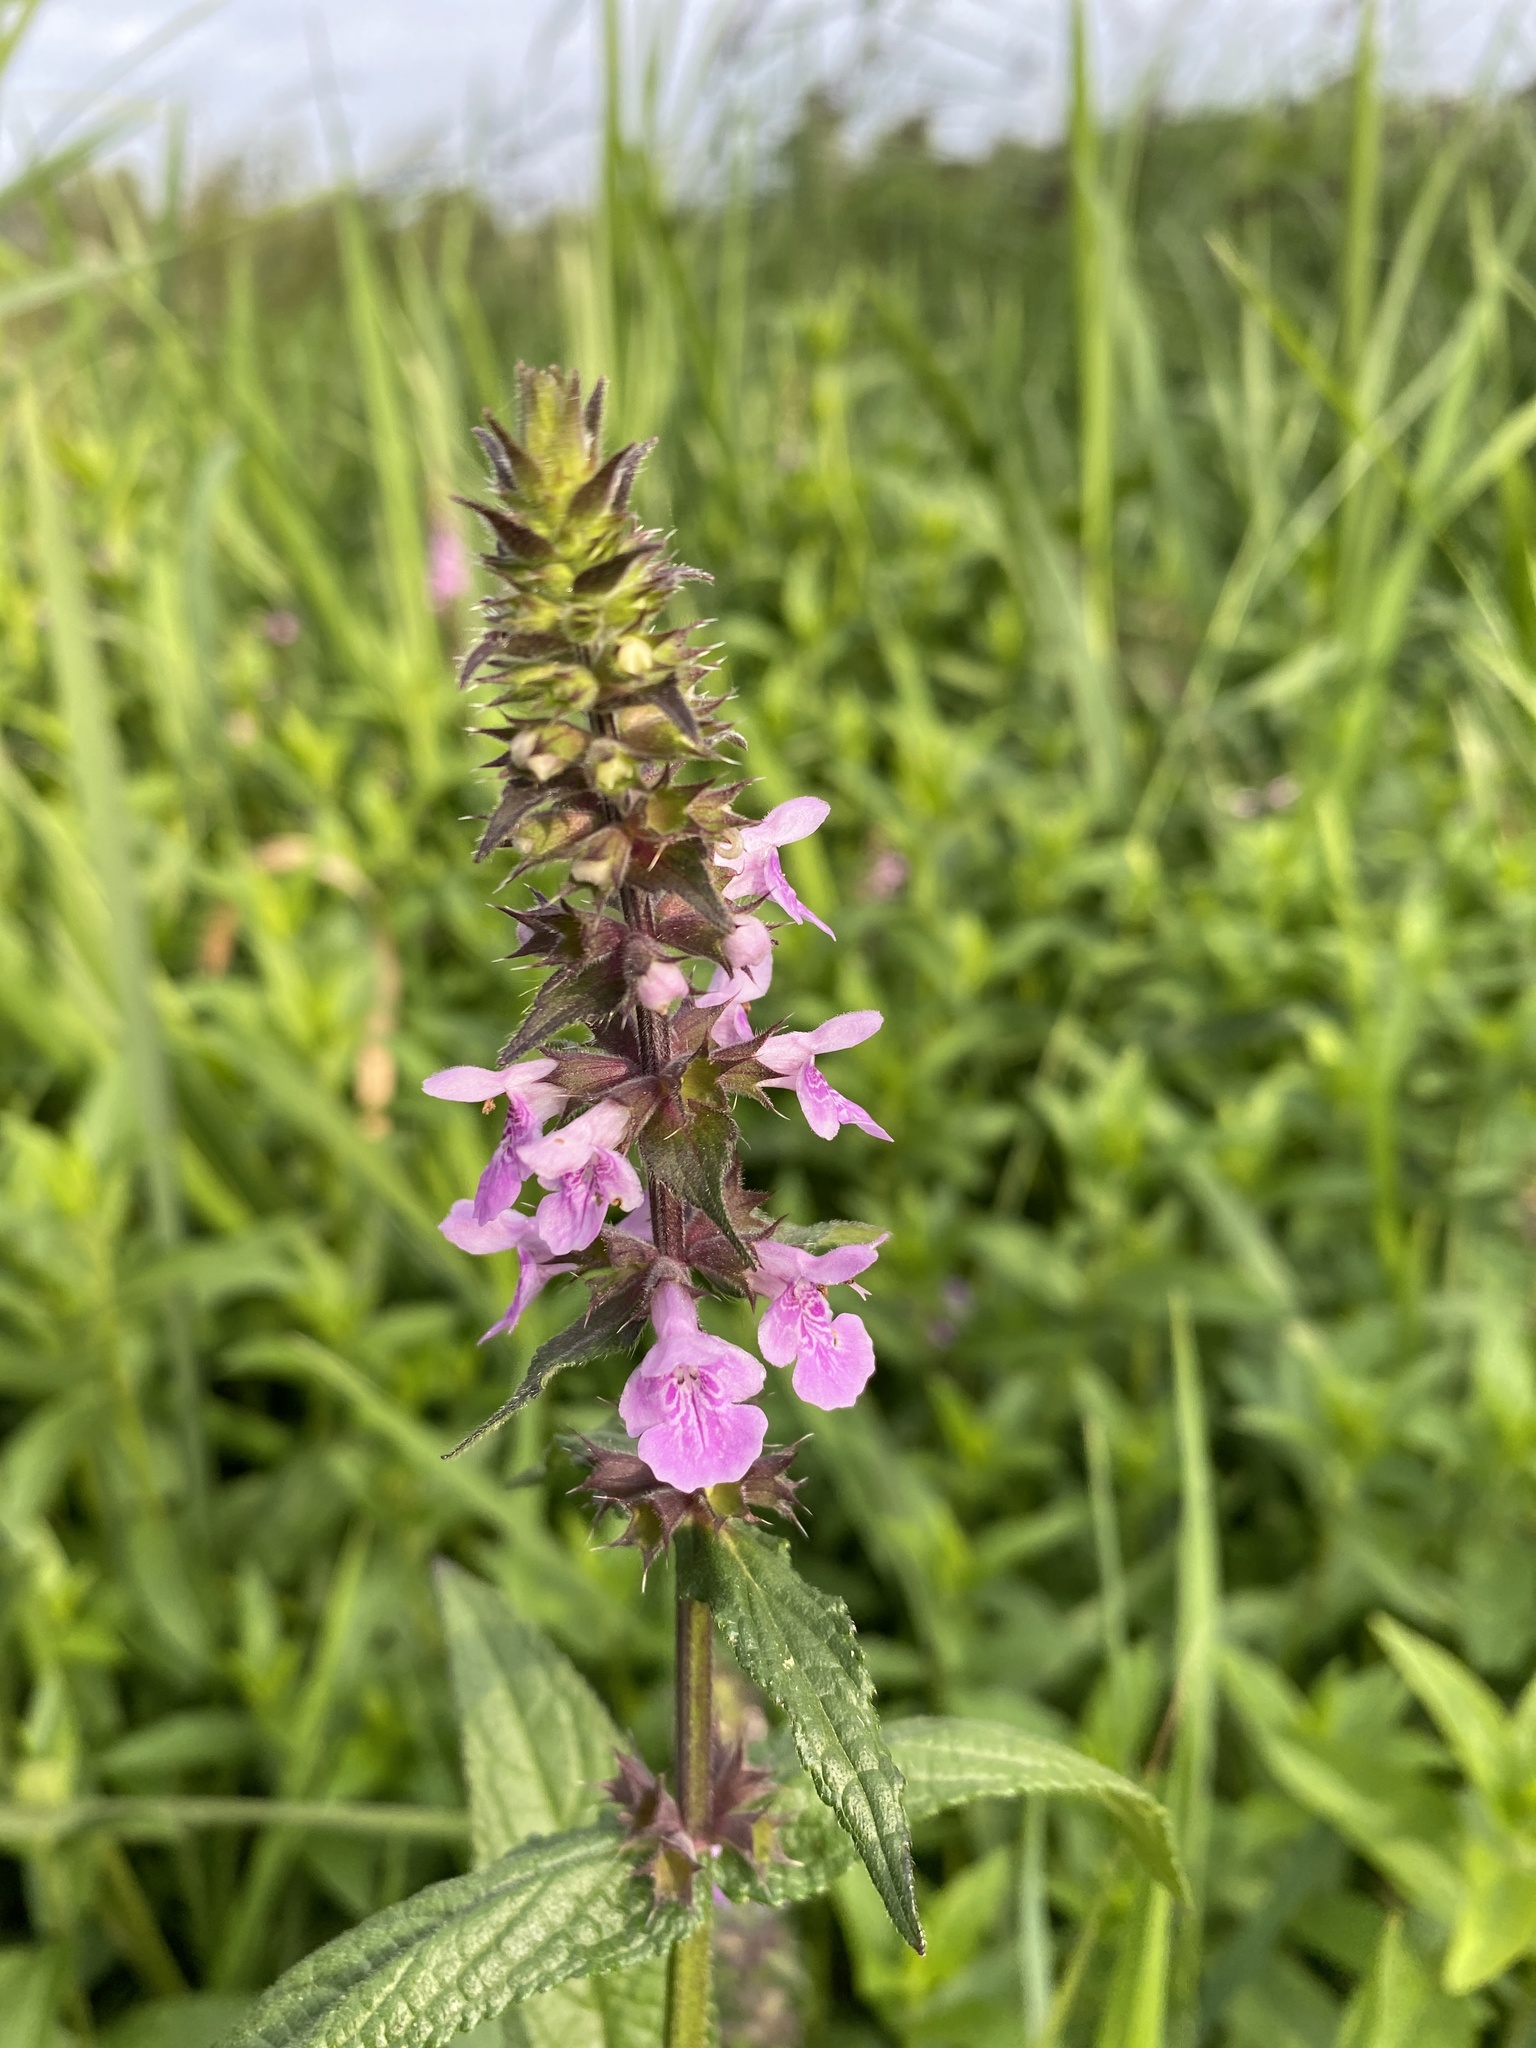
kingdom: Plantae
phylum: Tracheophyta
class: Magnoliopsida
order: Lamiales
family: Lamiaceae
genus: Stachys
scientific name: Stachys palustris
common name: Marsh woundwort
